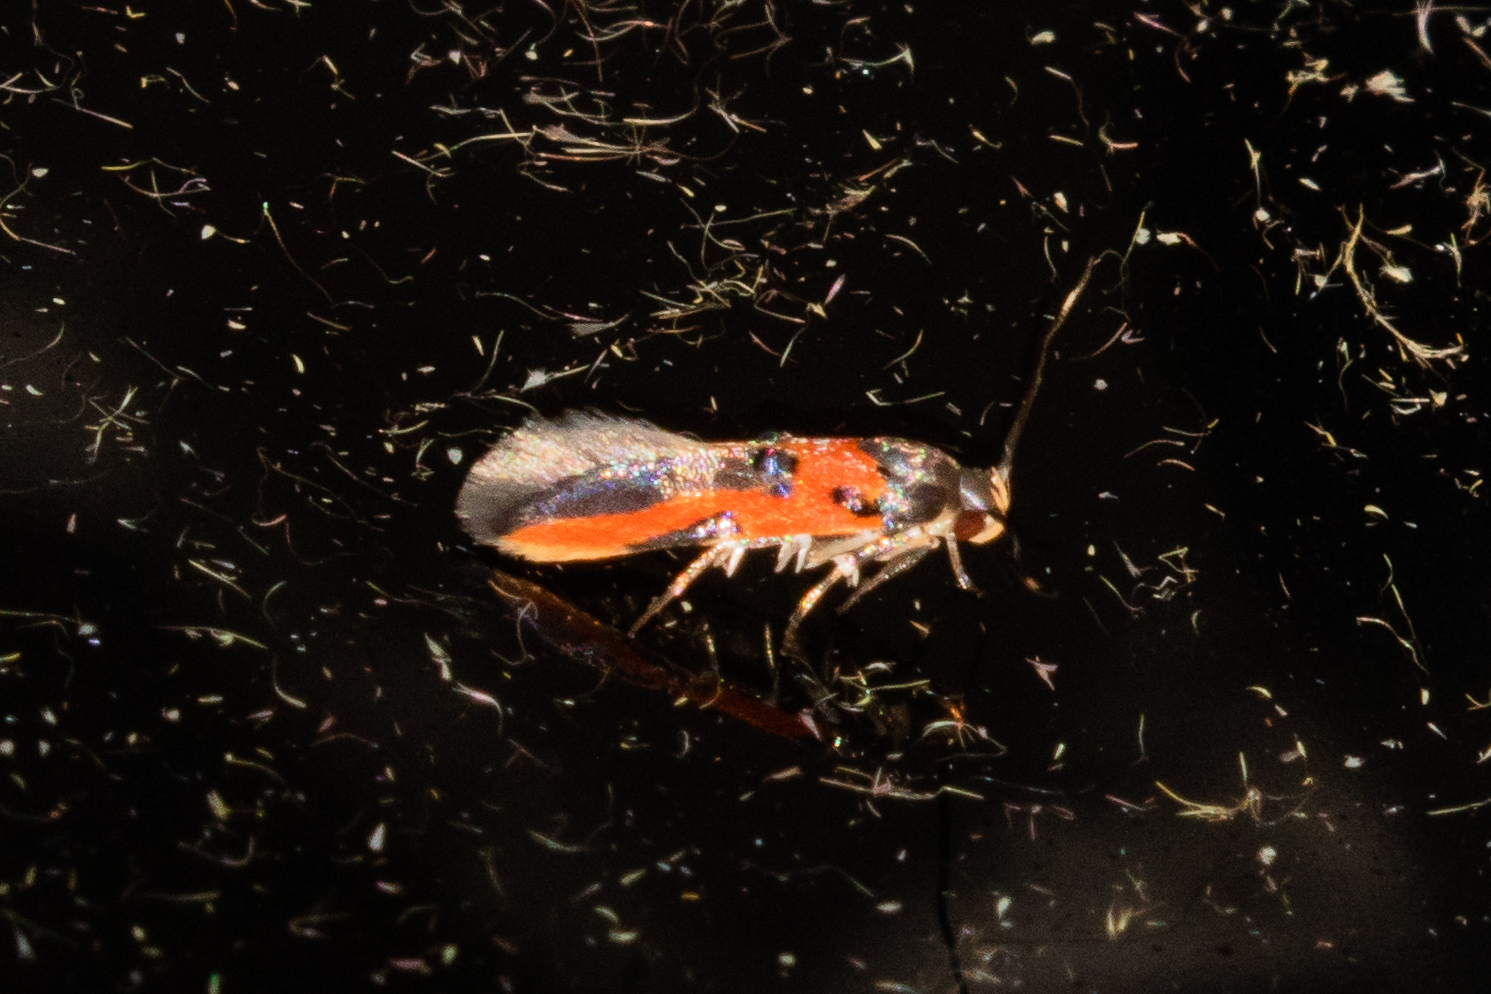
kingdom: Animalia
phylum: Arthropoda
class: Insecta
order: Lepidoptera
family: Cosmopterigidae
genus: Euclemensia
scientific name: Euclemensia bassettella
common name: Kermes scale moth
